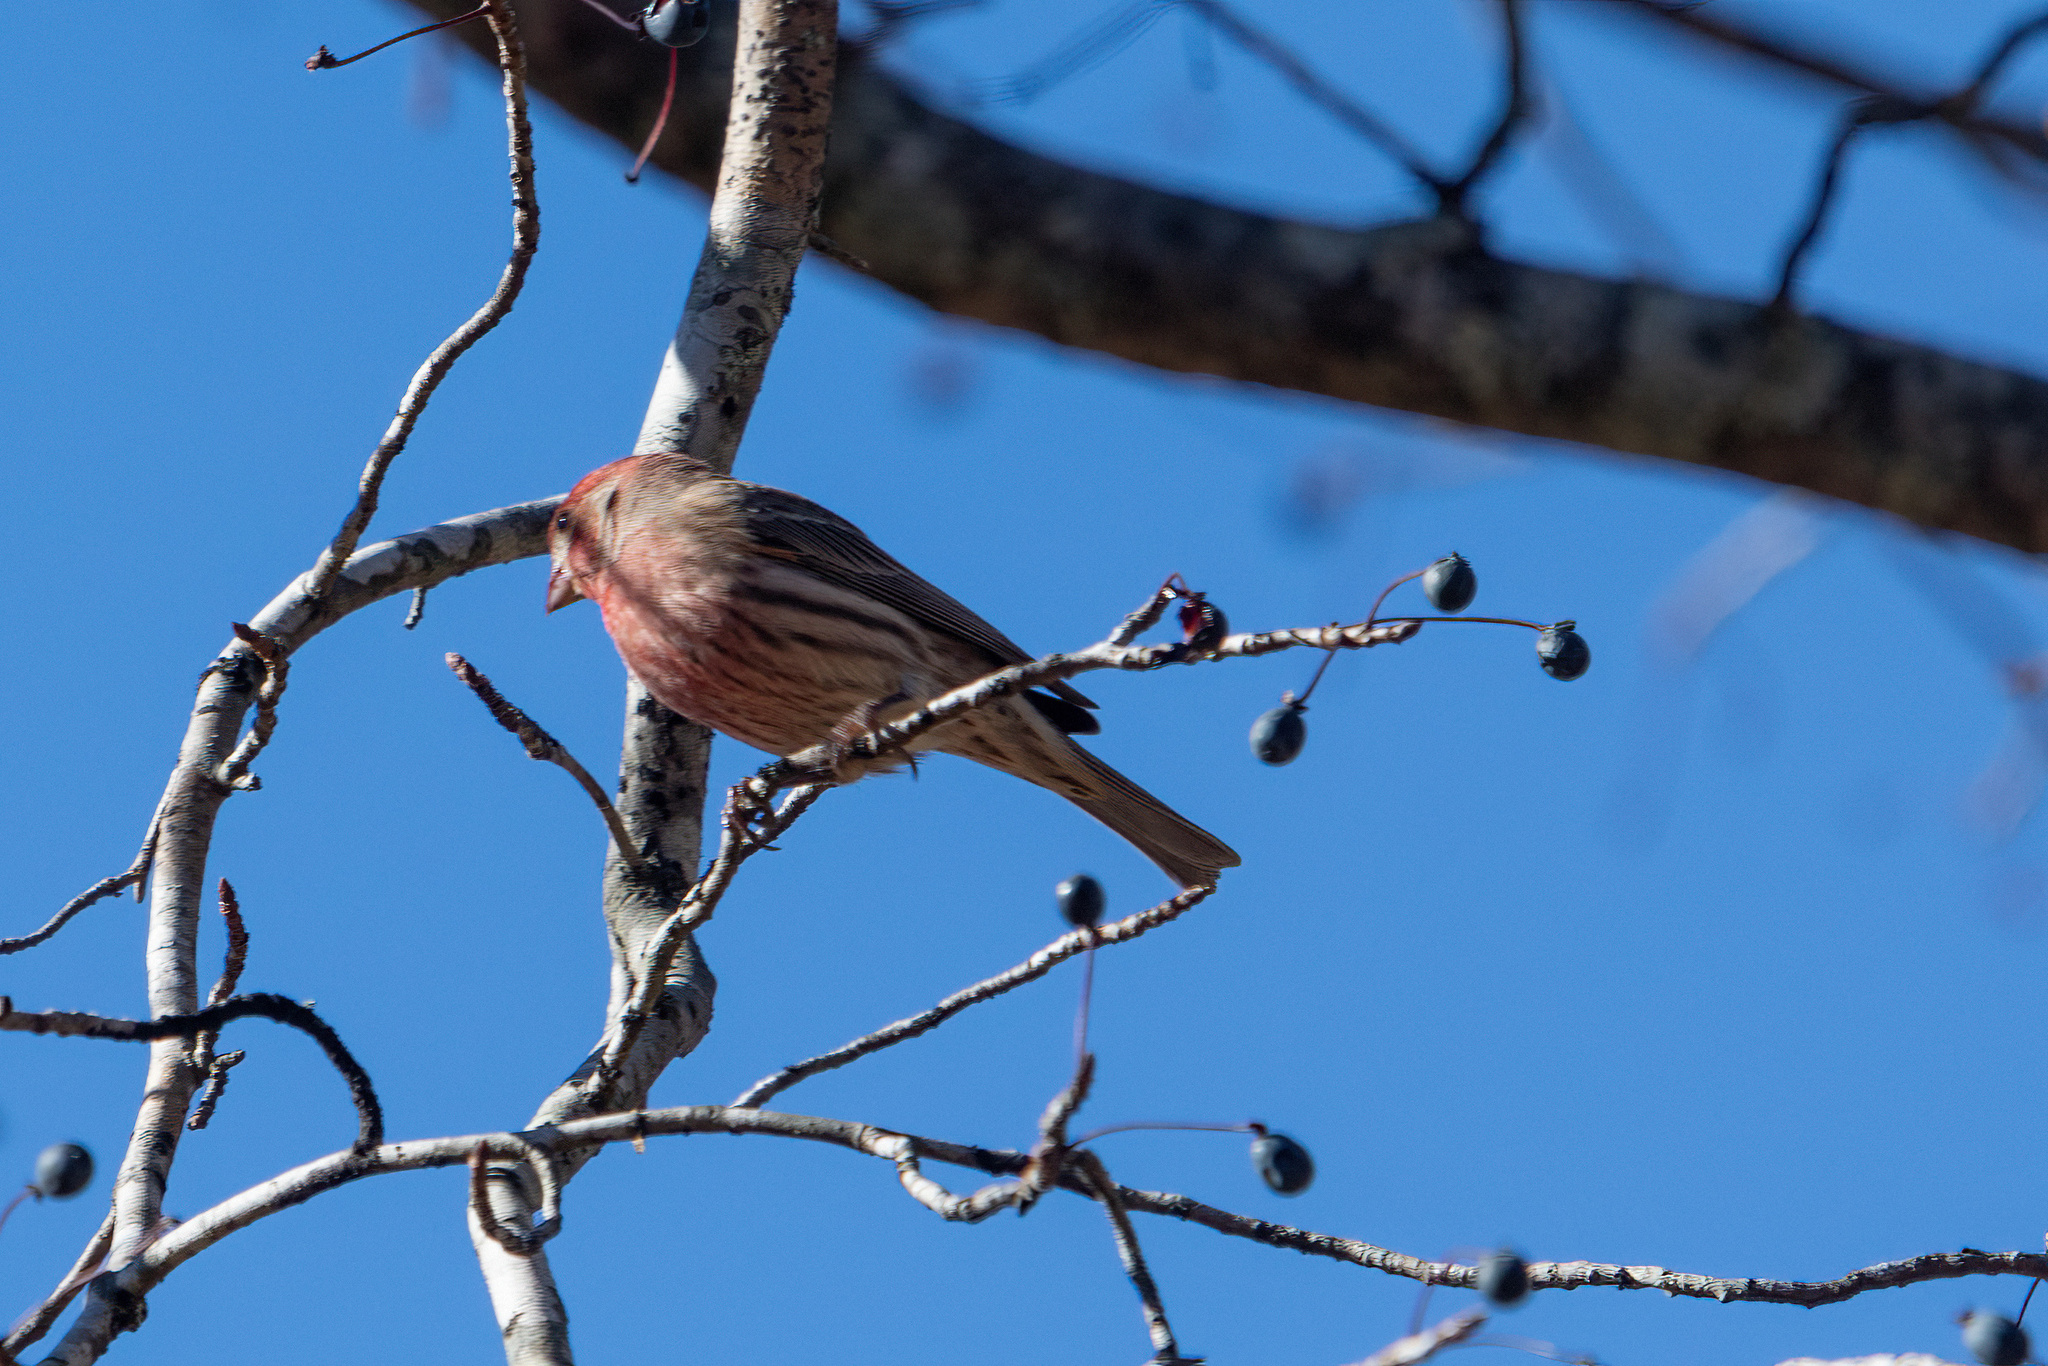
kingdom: Animalia
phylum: Chordata
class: Aves
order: Passeriformes
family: Fringillidae
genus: Haemorhous
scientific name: Haemorhous mexicanus
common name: House finch
